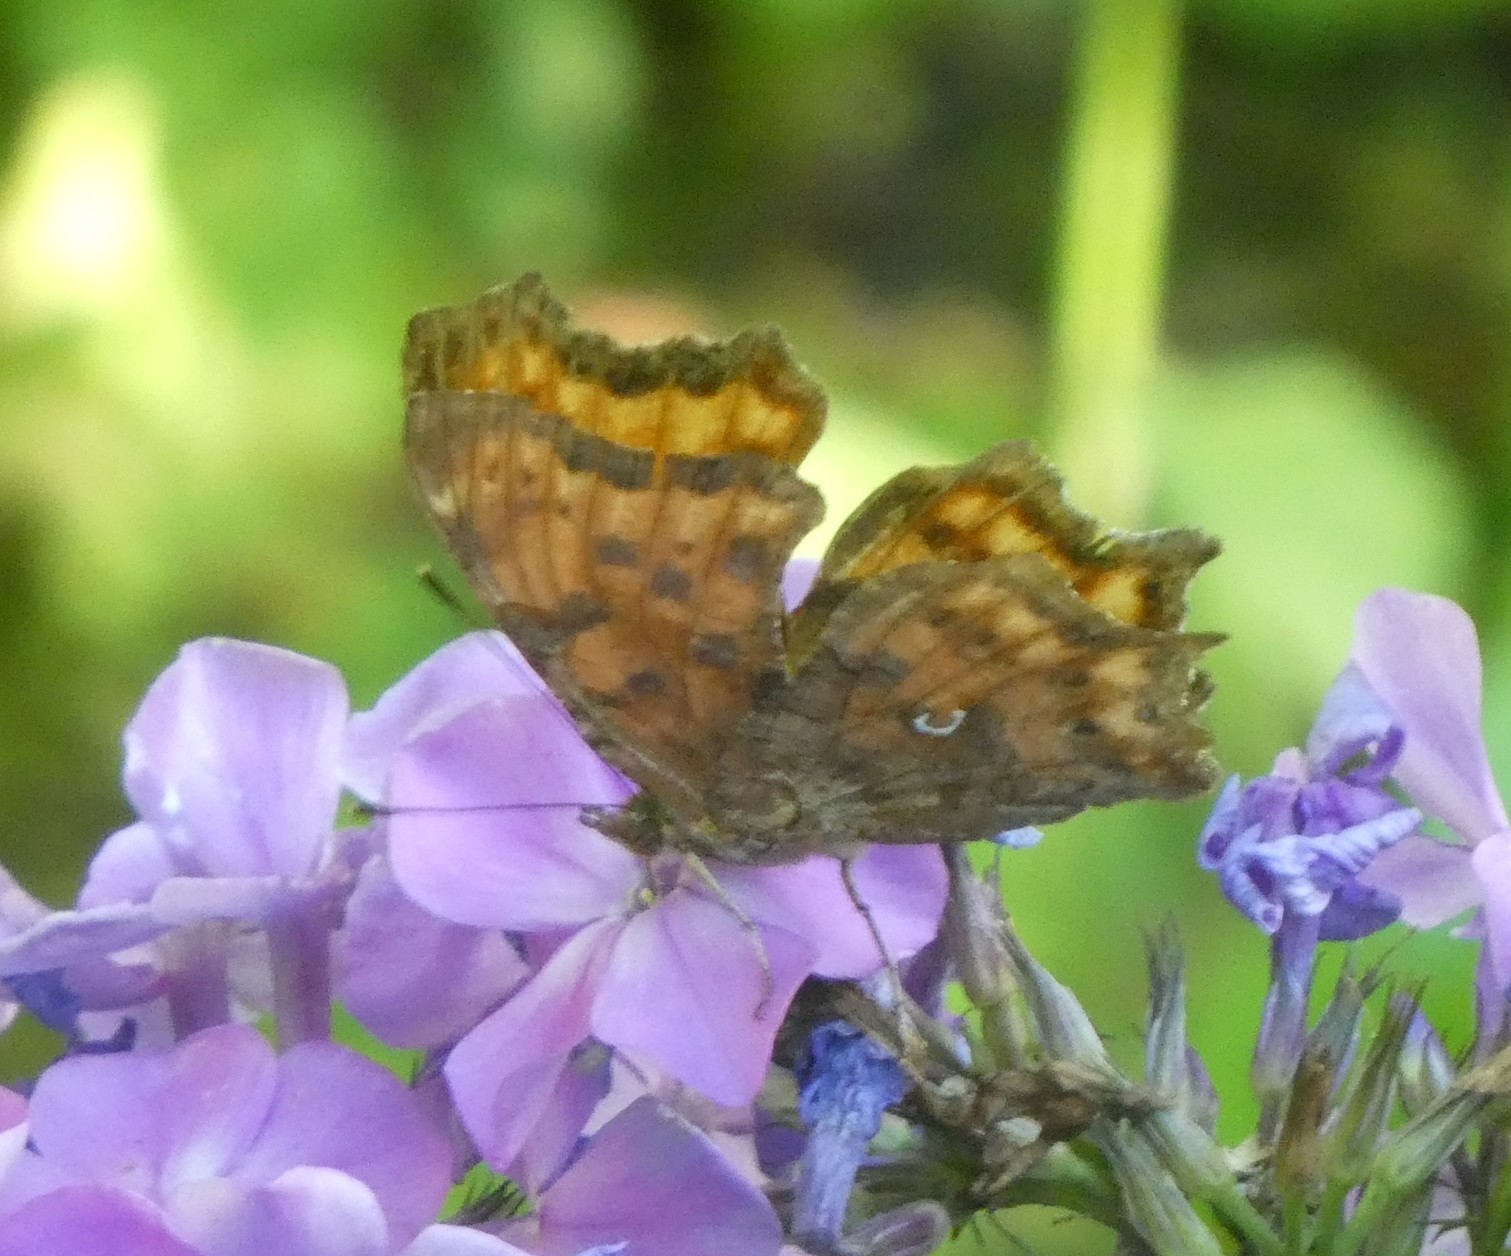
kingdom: Animalia
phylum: Arthropoda
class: Insecta
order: Lepidoptera
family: Nymphalidae
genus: Polygonia
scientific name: Polygonia c-album
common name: Comma
